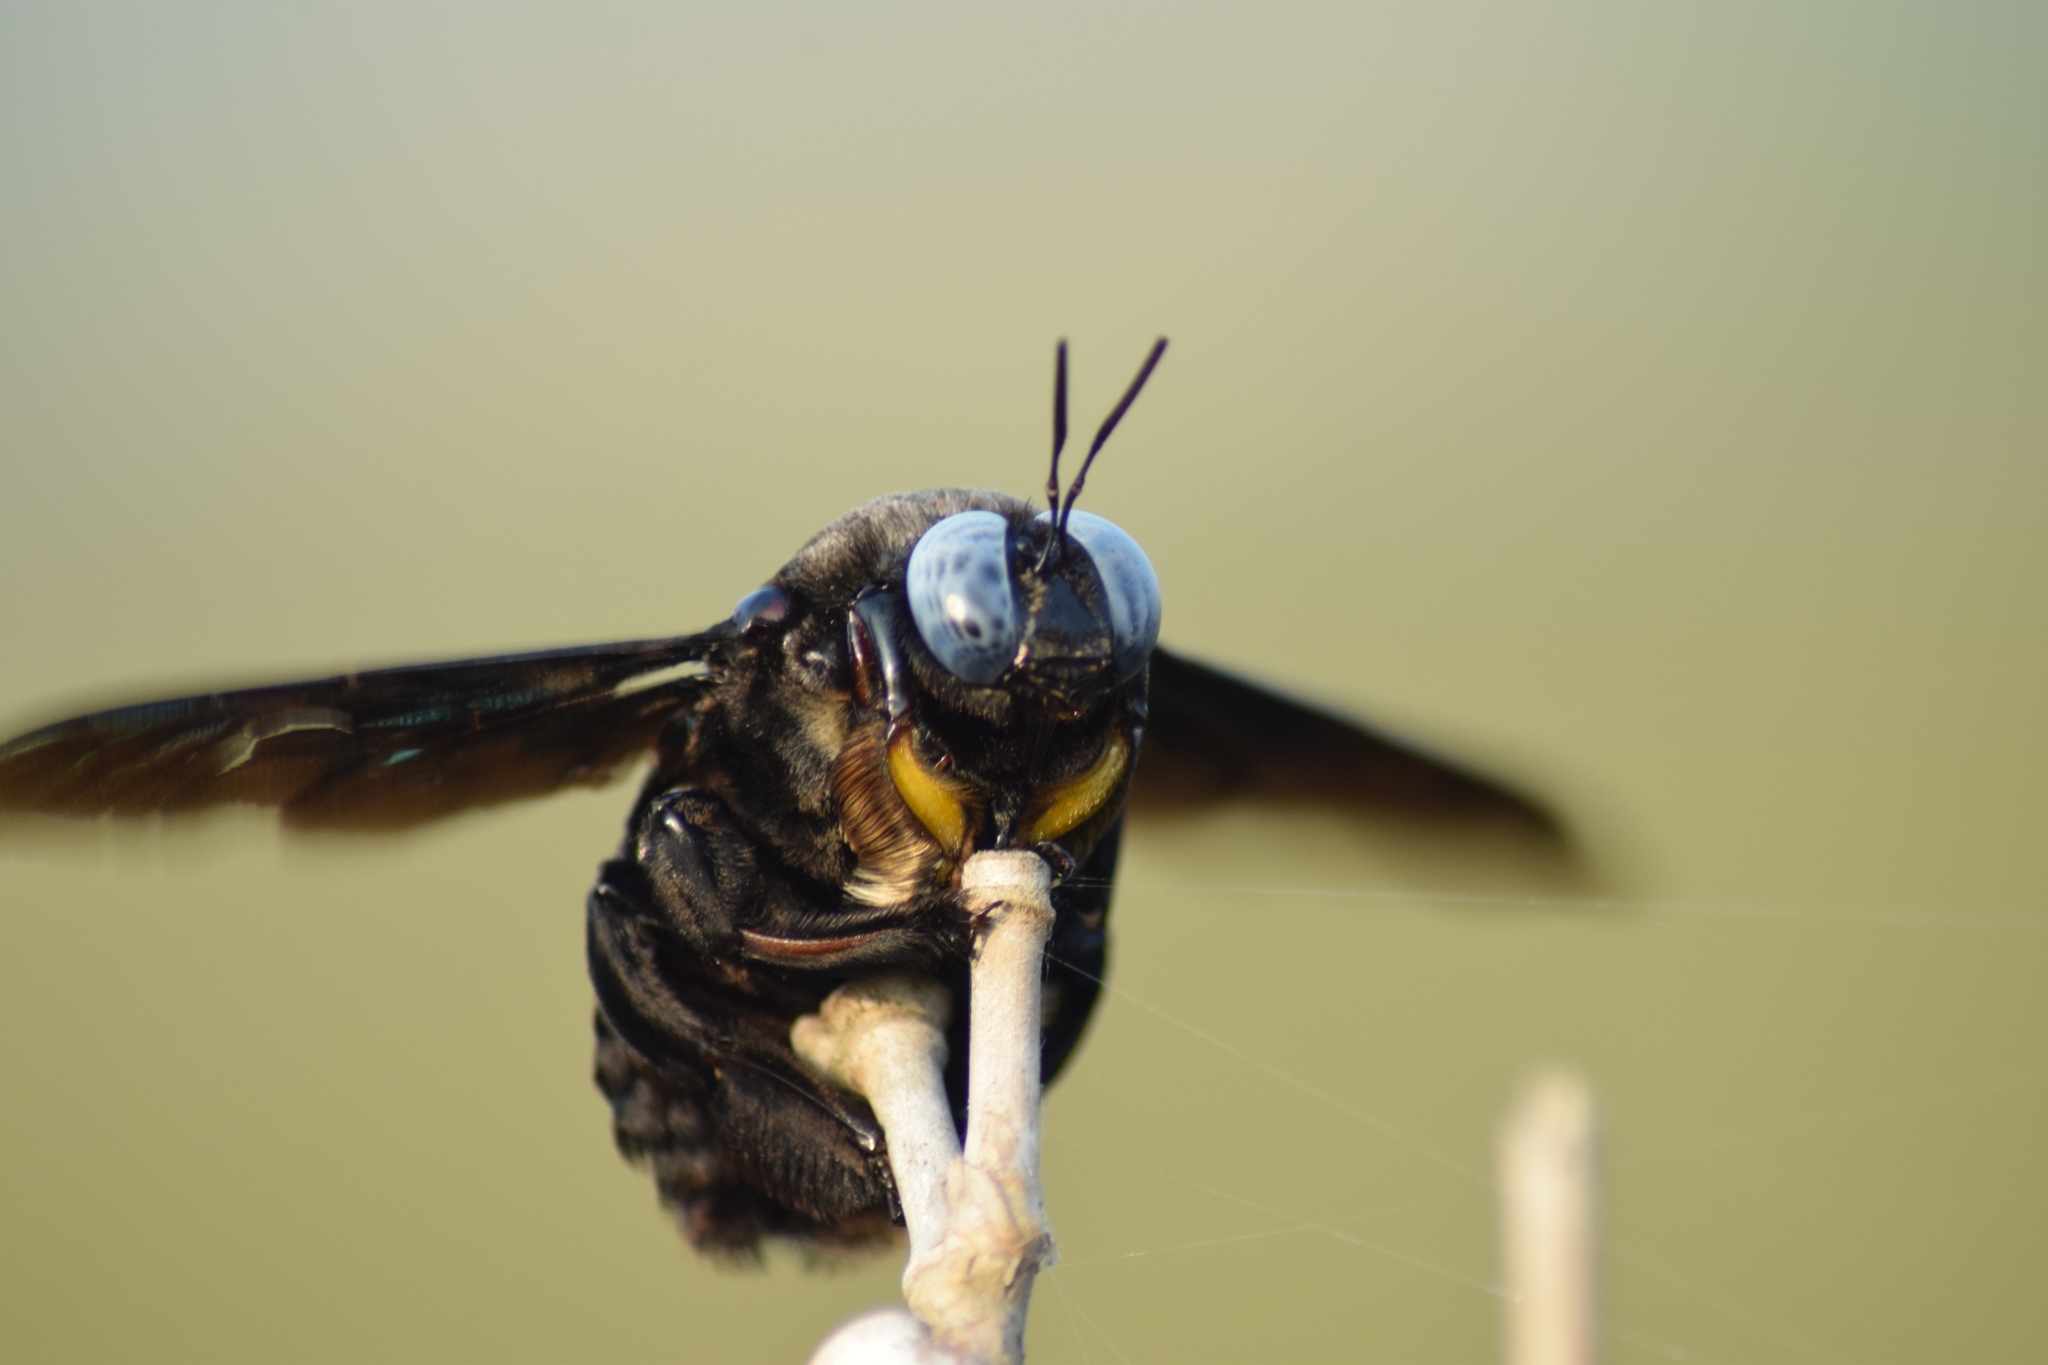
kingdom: Animalia
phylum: Arthropoda
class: Insecta
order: Hymenoptera
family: Apidae
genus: Xylocopa
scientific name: Xylocopa tenuiscapa
